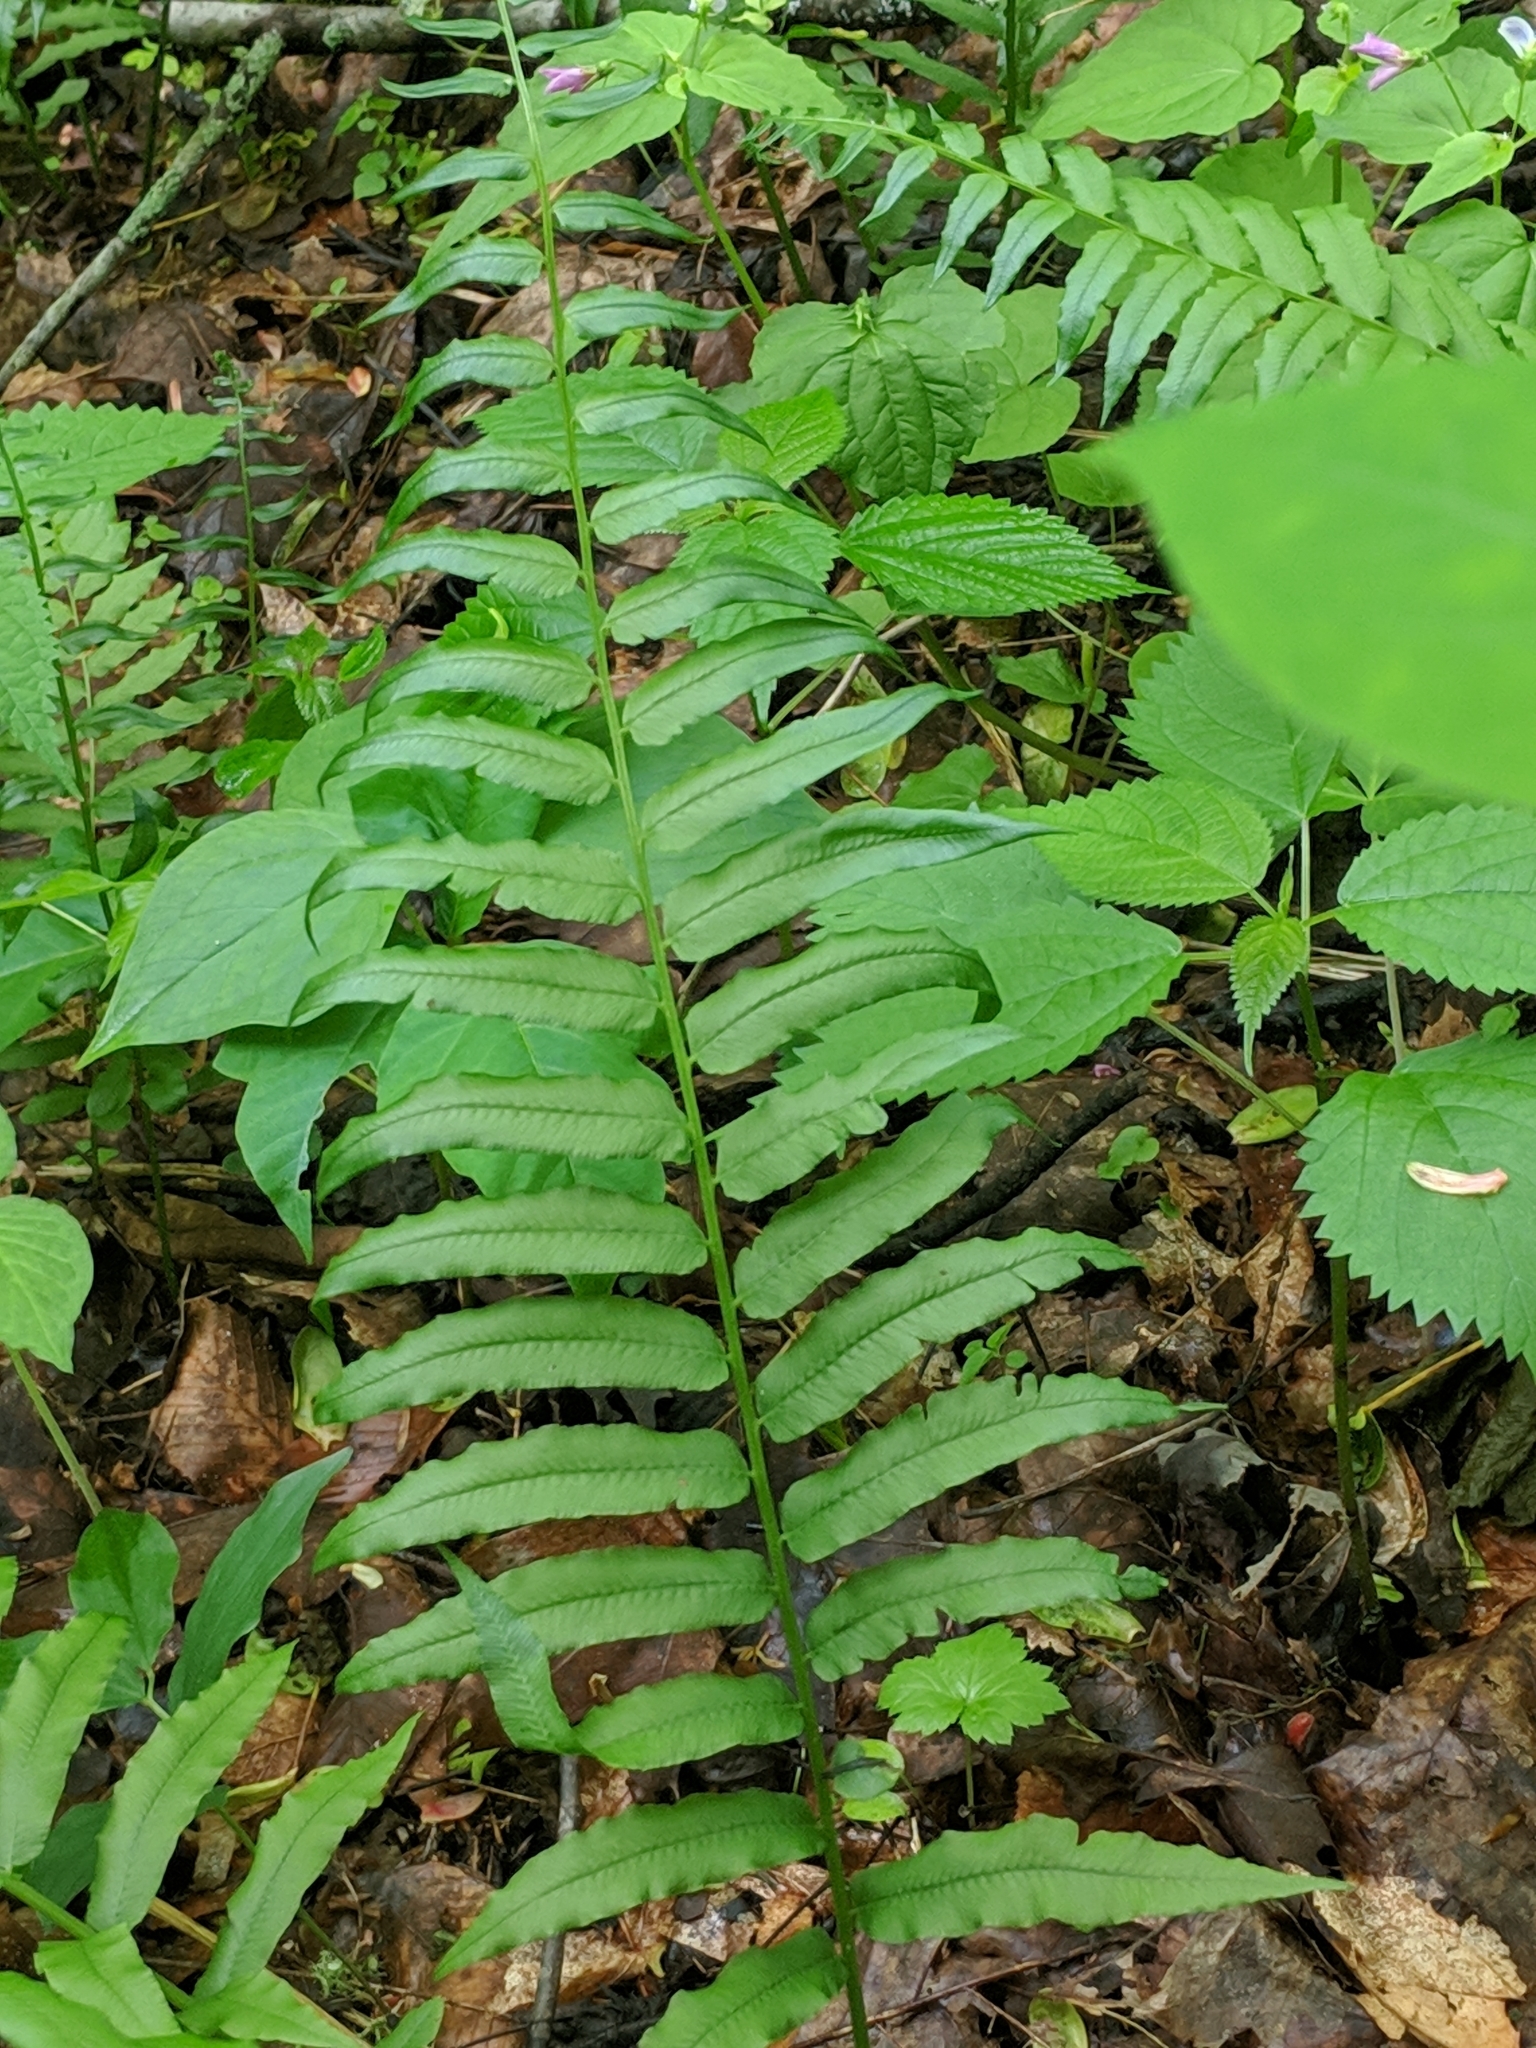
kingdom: Plantae
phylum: Tracheophyta
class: Polypodiopsida
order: Polypodiales
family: Diplaziopsidaceae
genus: Homalosorus
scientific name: Homalosorus pycnocarpos
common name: Glade fern
